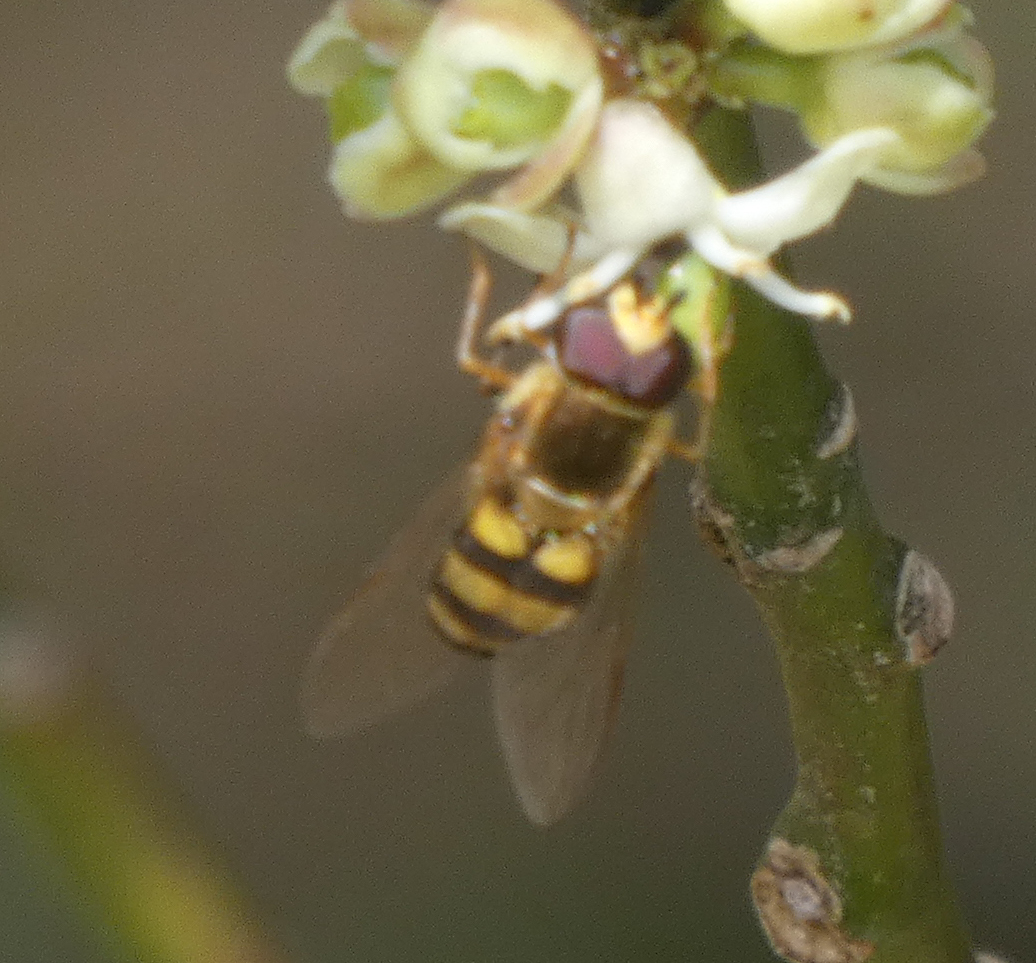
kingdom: Animalia
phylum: Arthropoda
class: Insecta
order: Diptera
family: Syrphidae
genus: Eupeodes
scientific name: Eupeodes
